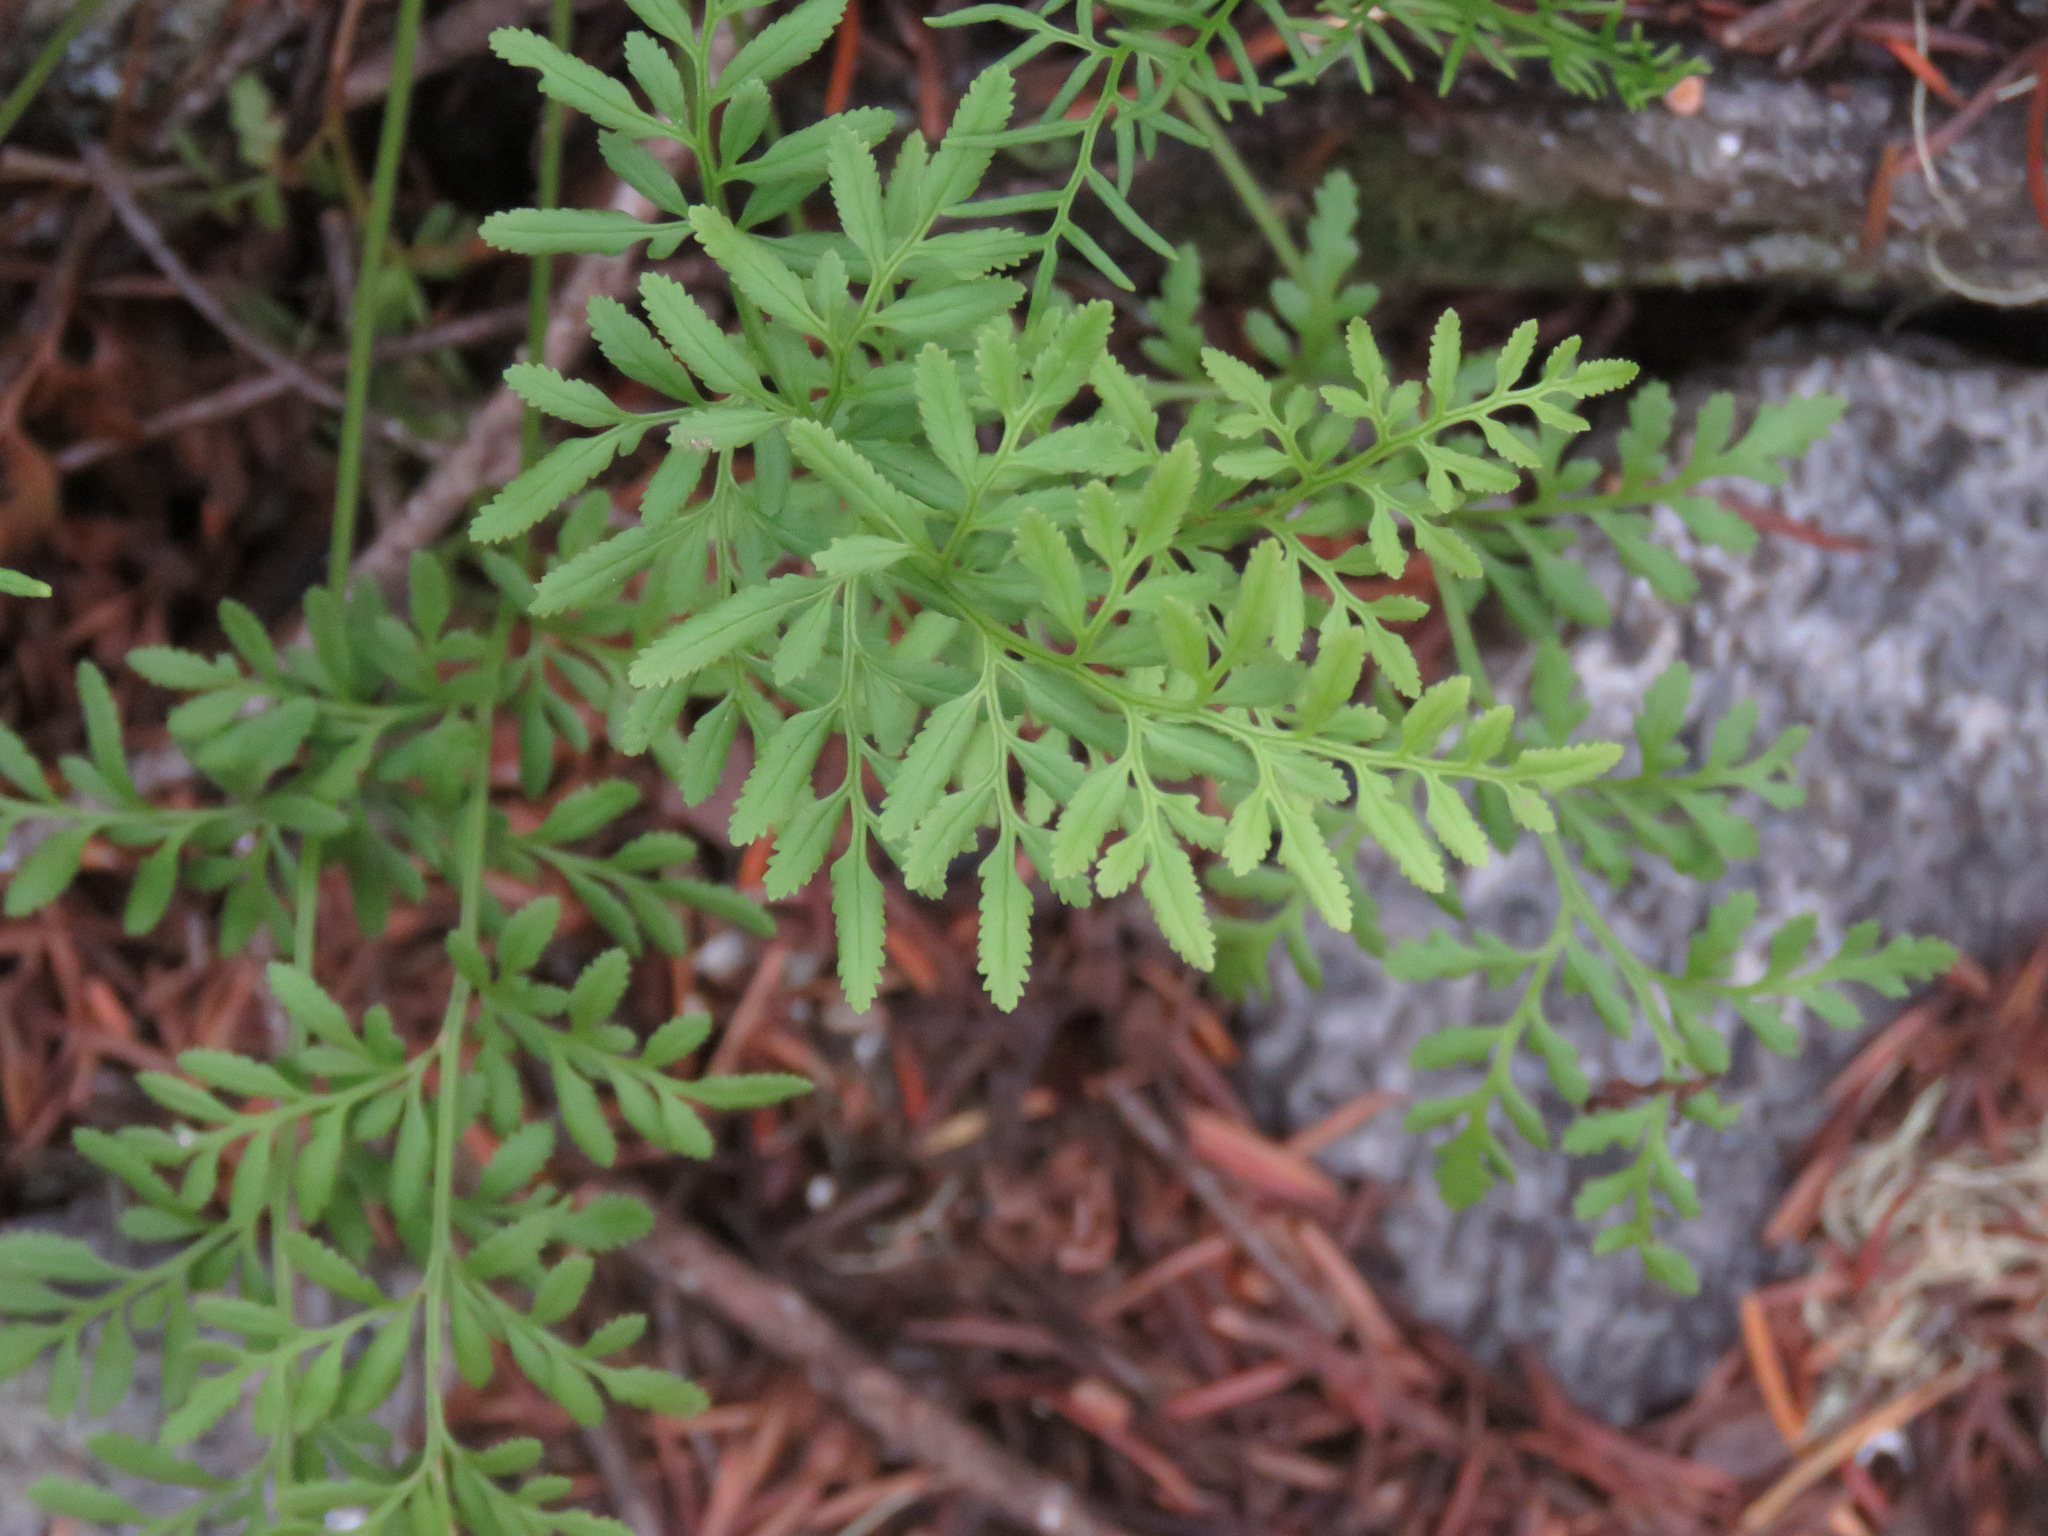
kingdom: Plantae
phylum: Tracheophyta
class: Polypodiopsida
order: Polypodiales
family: Pteridaceae
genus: Cryptogramma
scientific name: Cryptogramma acrostichoides
